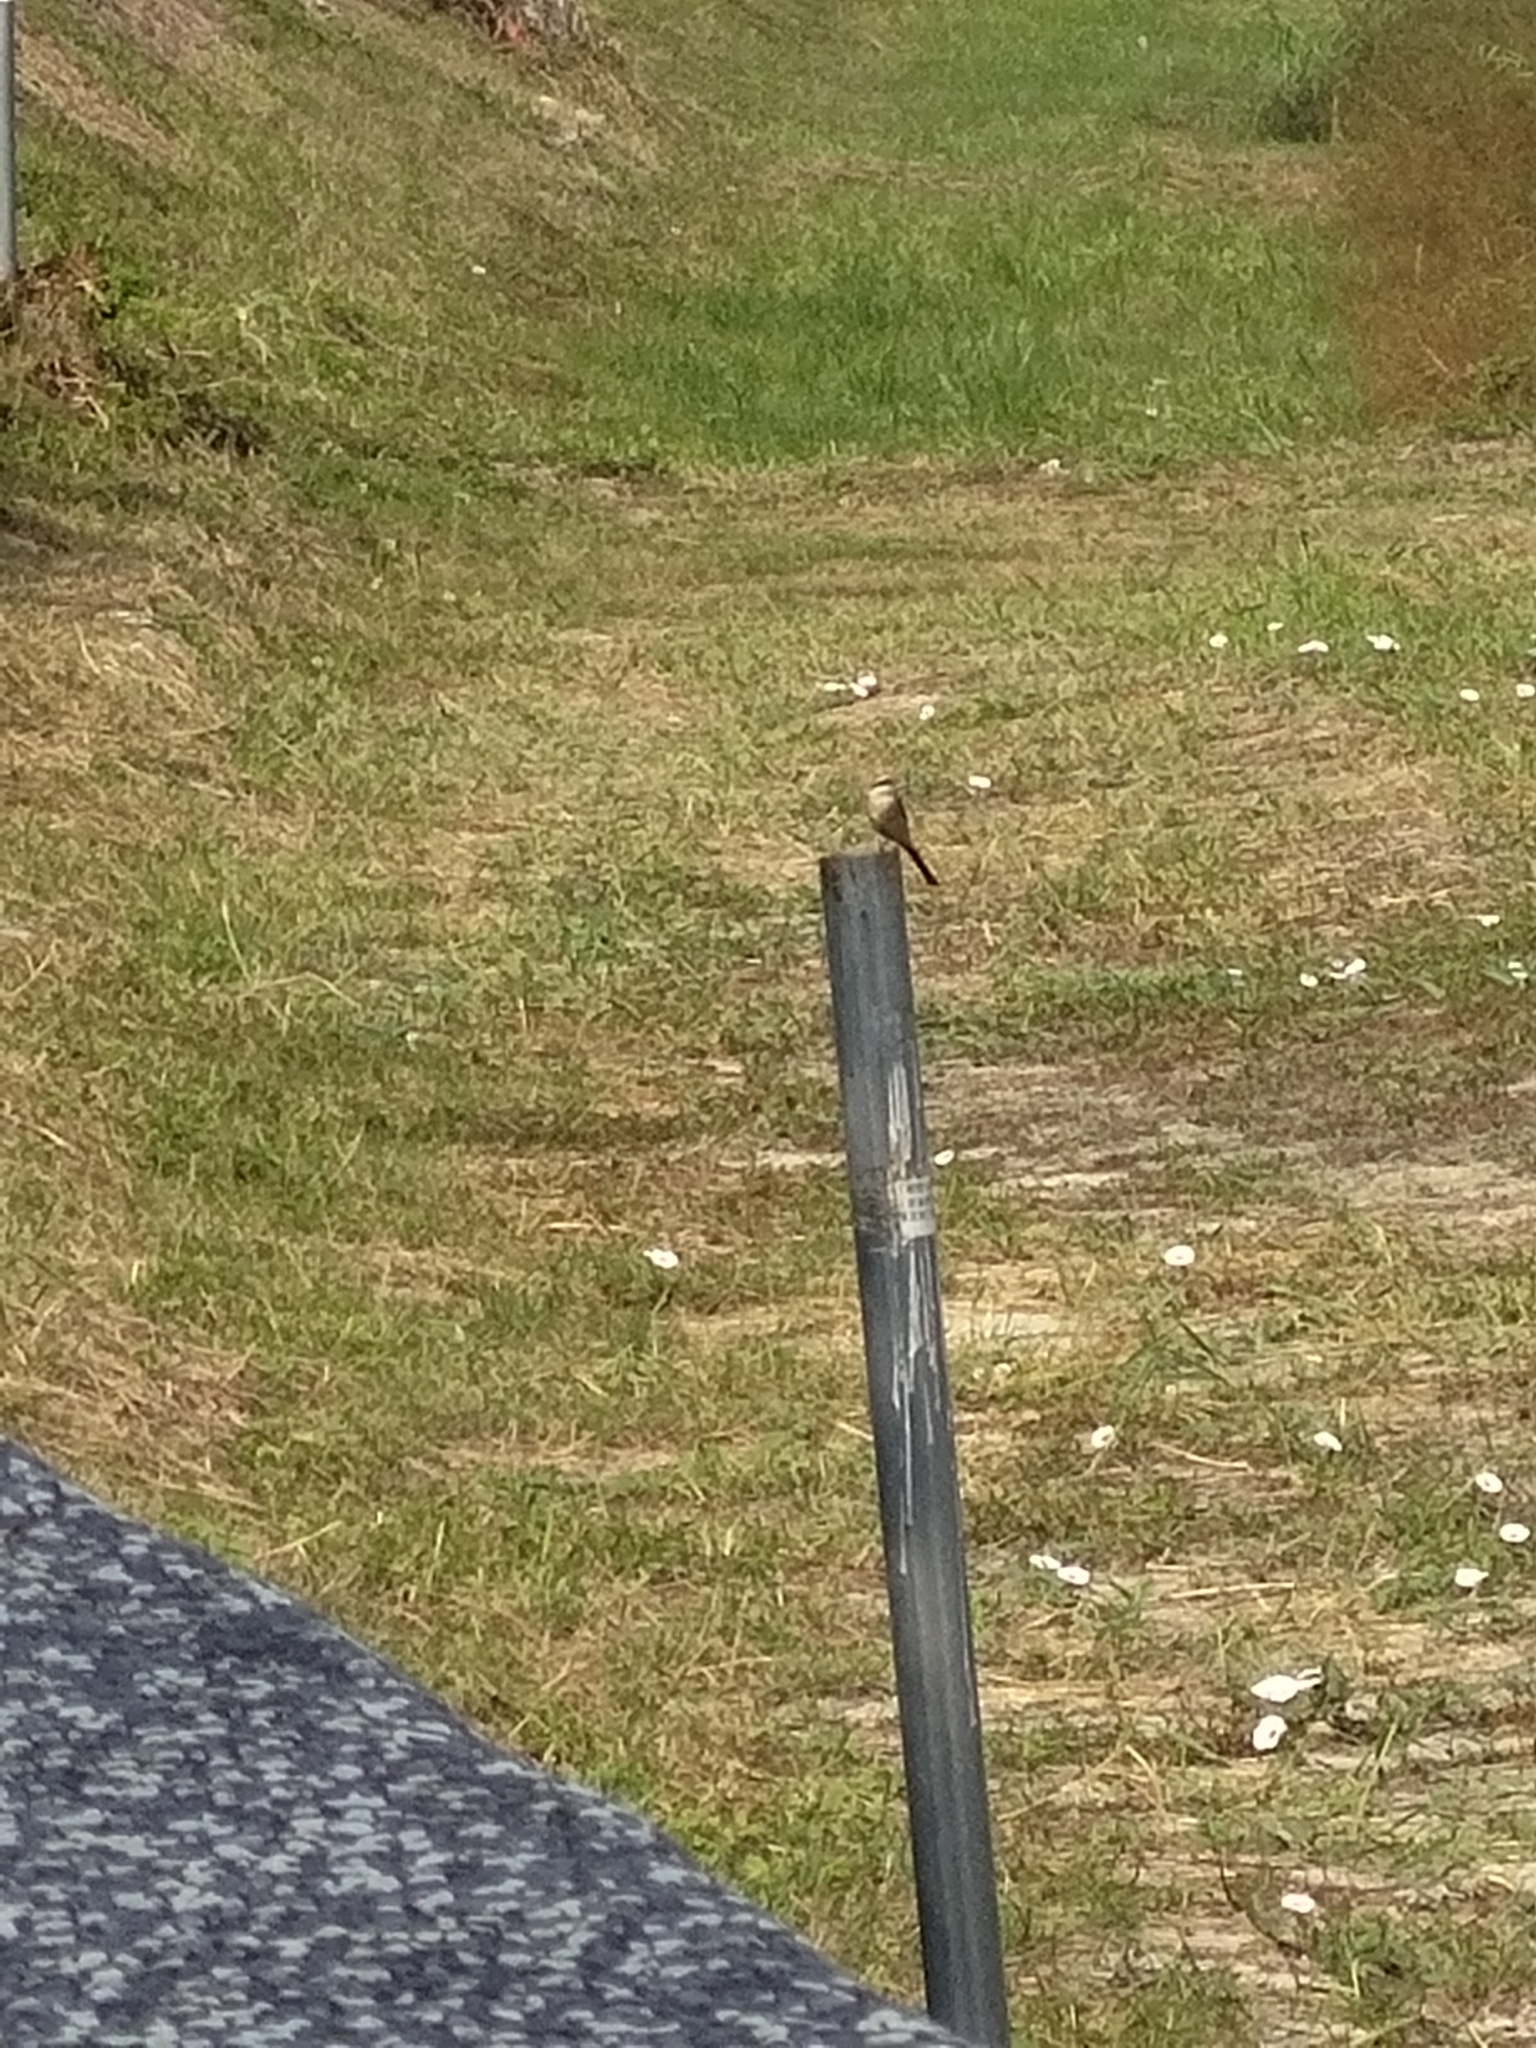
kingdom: Animalia
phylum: Chordata
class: Aves
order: Passeriformes
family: Laniidae
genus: Lanius
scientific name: Lanius cristatus
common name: Brown shrike
